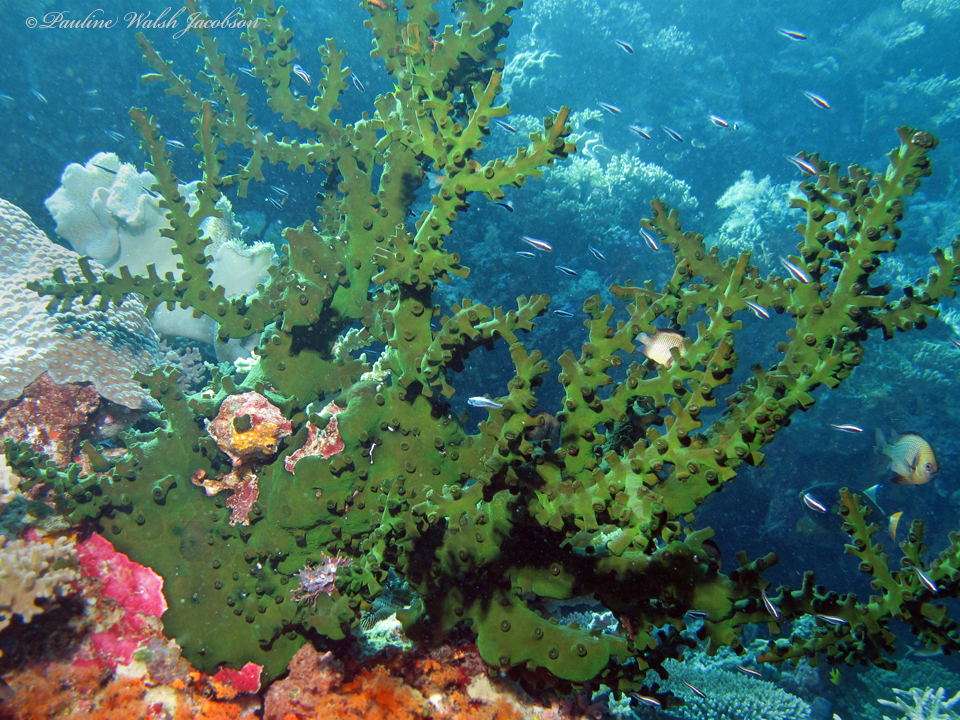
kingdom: Animalia
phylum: Cnidaria
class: Anthozoa
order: Scleractinia
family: Dendrophylliidae
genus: Tubastraea
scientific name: Tubastraea micranthus
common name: Black sun coral
